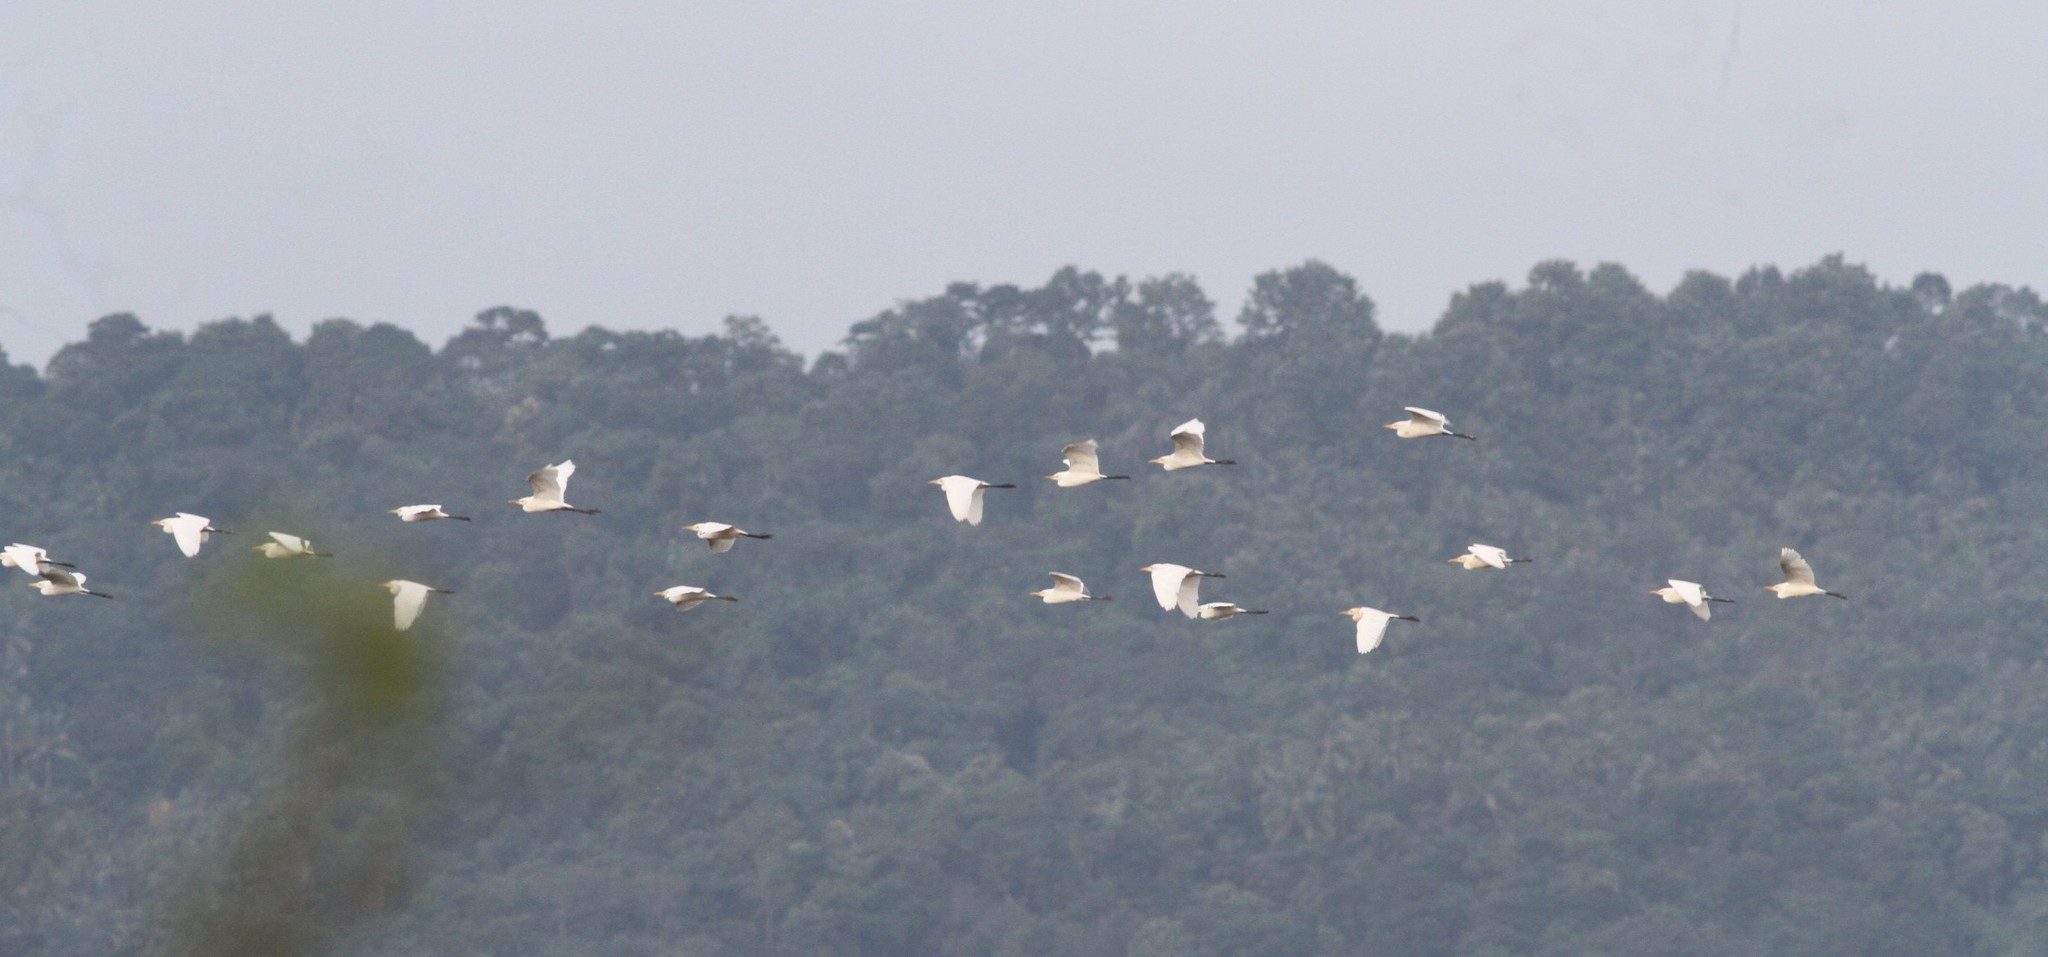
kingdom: Animalia
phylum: Chordata
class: Aves
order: Pelecaniformes
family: Ardeidae
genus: Bubulcus
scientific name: Bubulcus coromandus
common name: Eastern cattle egret
